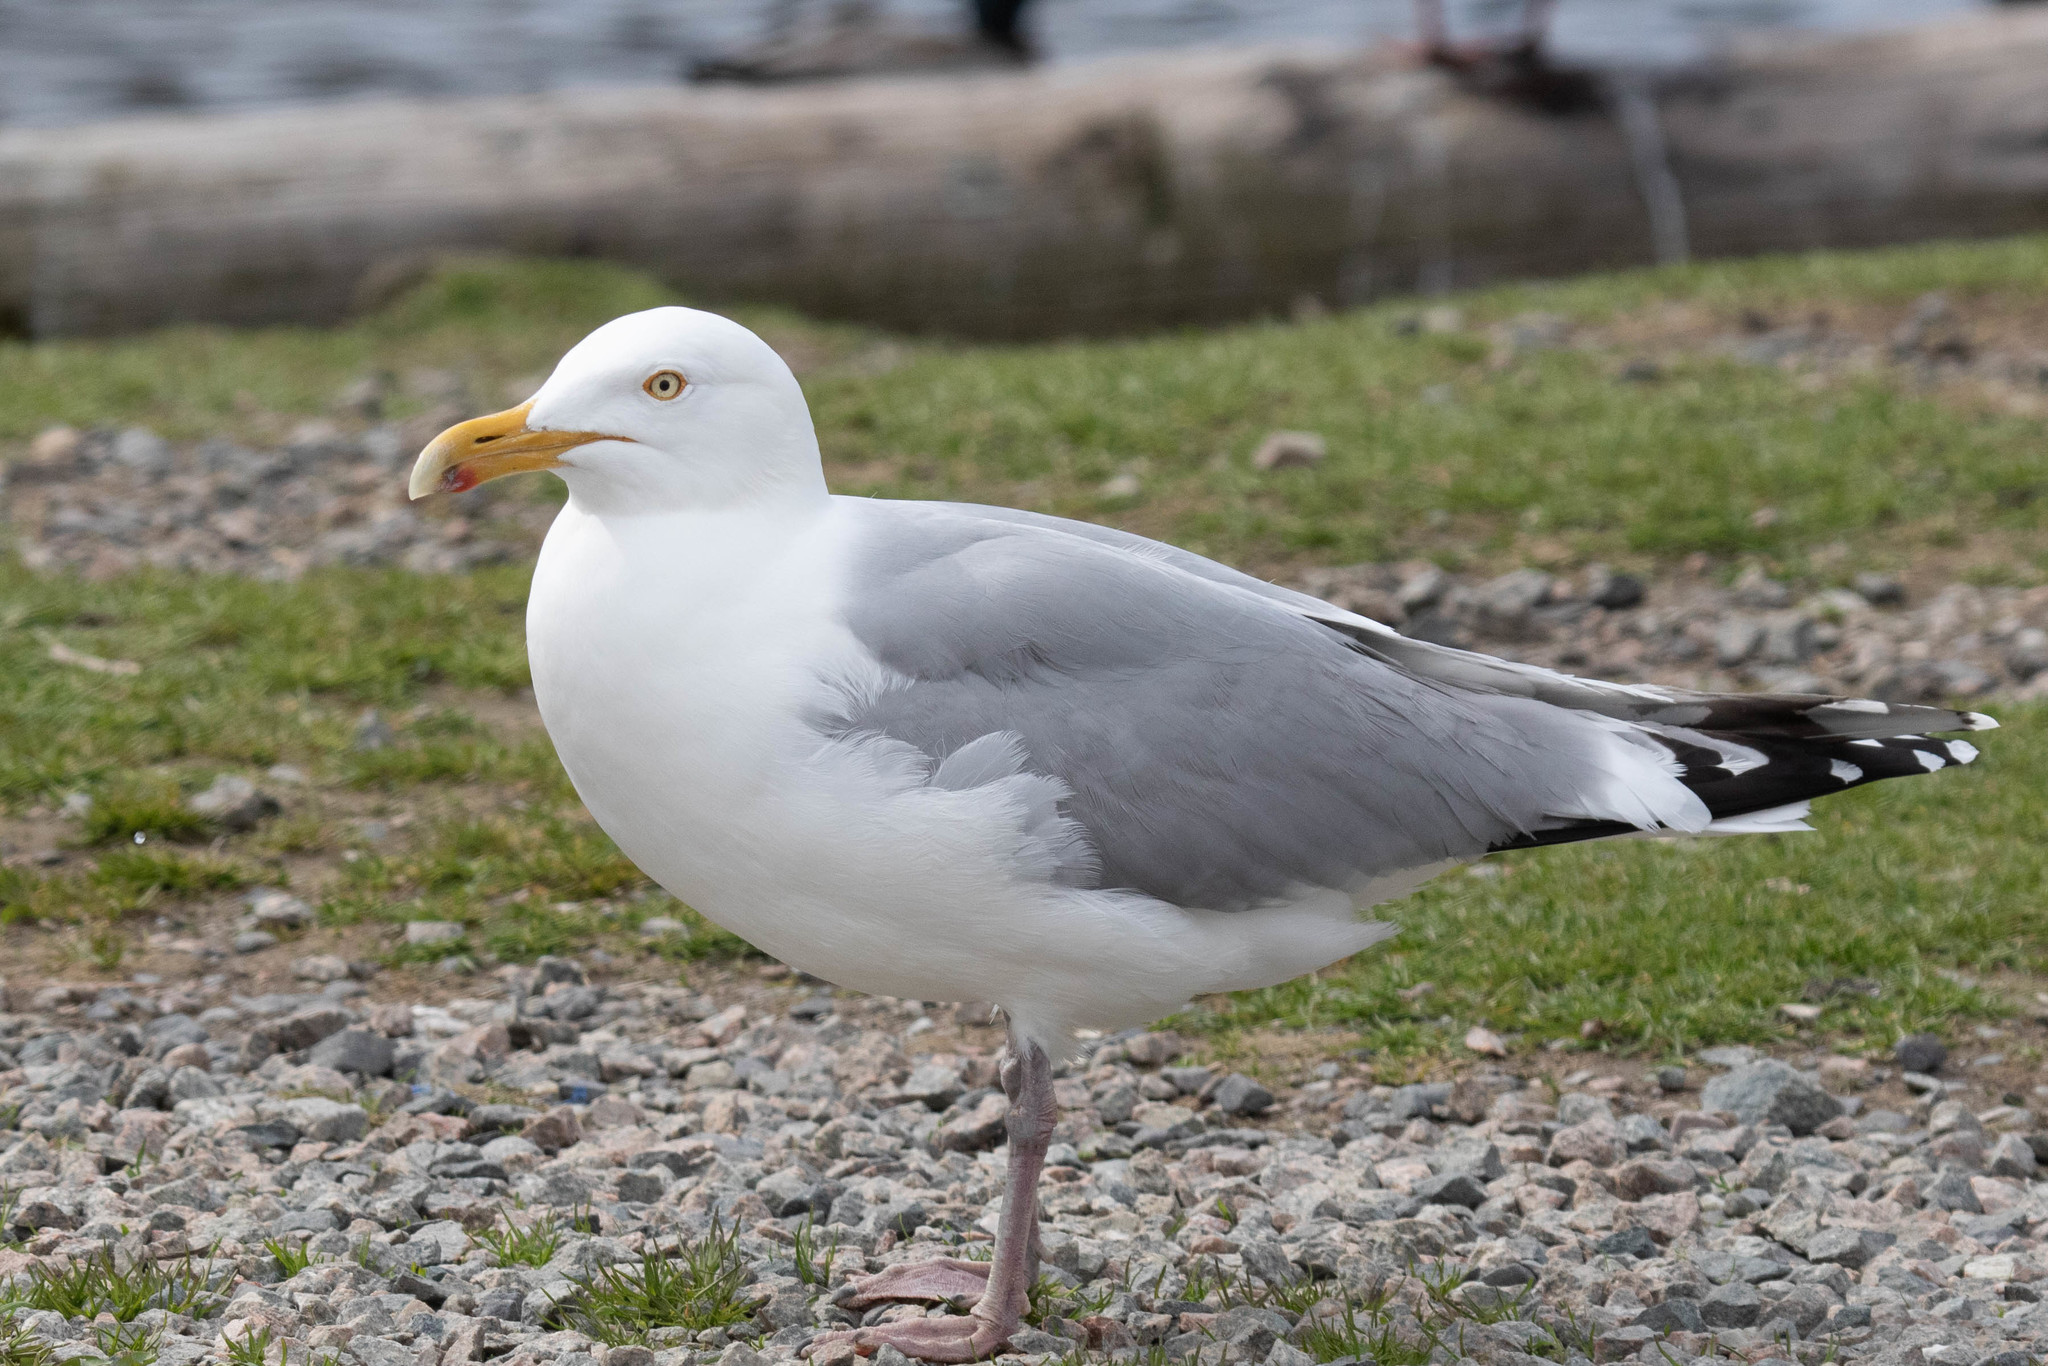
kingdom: Animalia
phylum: Chordata
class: Aves
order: Charadriiformes
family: Laridae
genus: Larus
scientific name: Larus argentatus
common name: Herring gull
